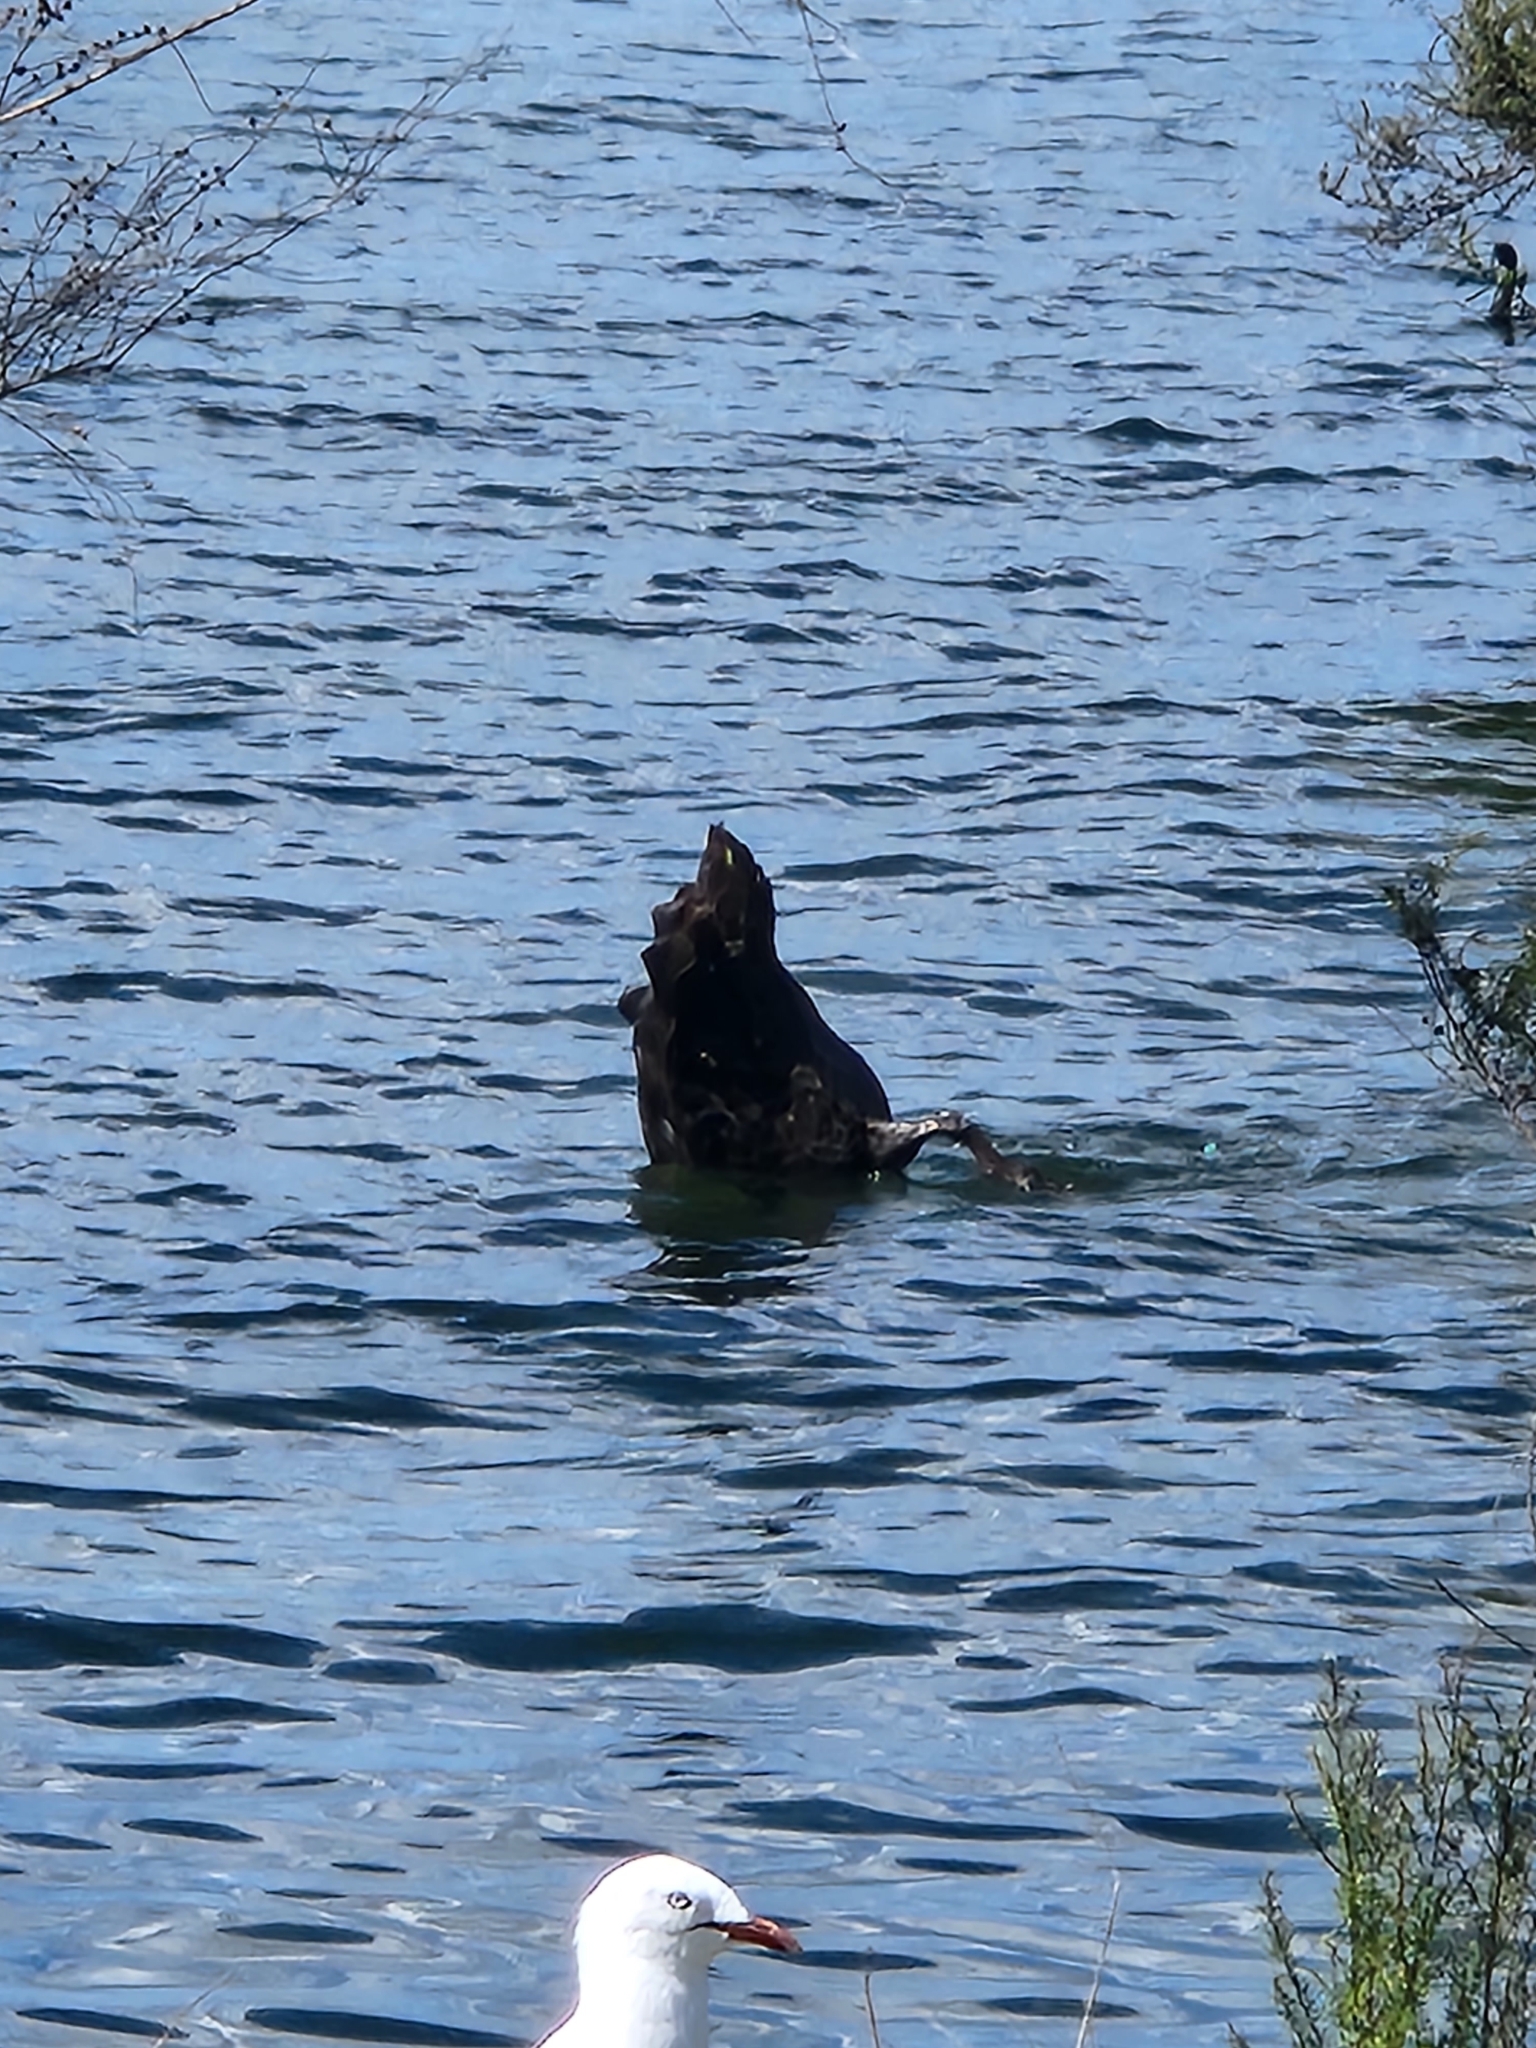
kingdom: Animalia
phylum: Chordata
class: Aves
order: Anseriformes
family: Anatidae
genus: Cygnus
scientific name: Cygnus atratus
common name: Black swan
